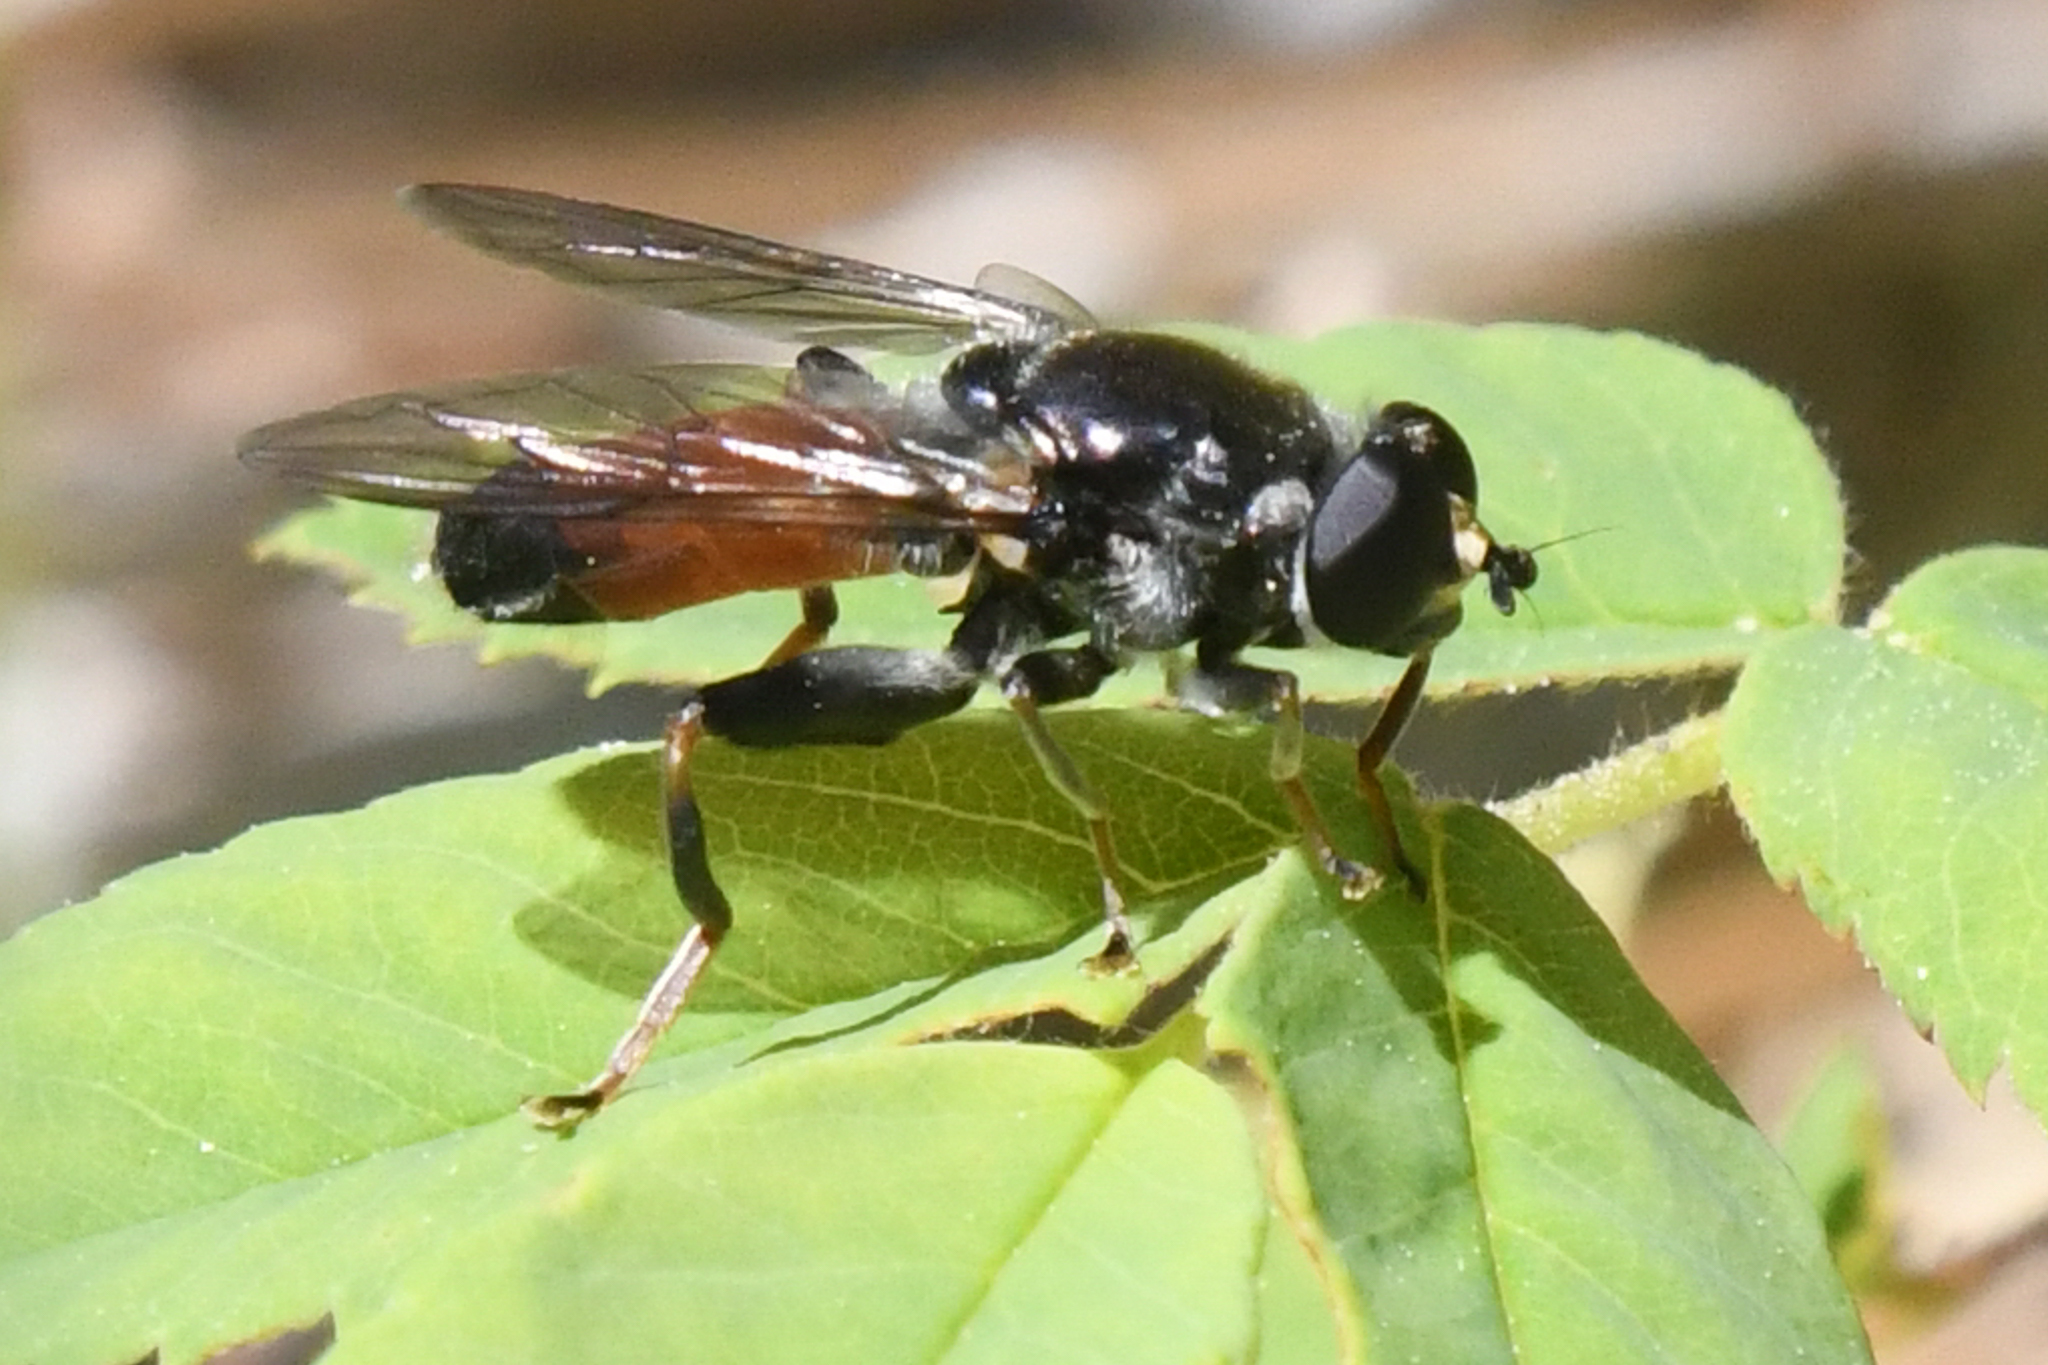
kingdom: Animalia
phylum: Arthropoda
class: Insecta
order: Diptera
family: Syrphidae
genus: Xylota
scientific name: Xylota flavitibia
